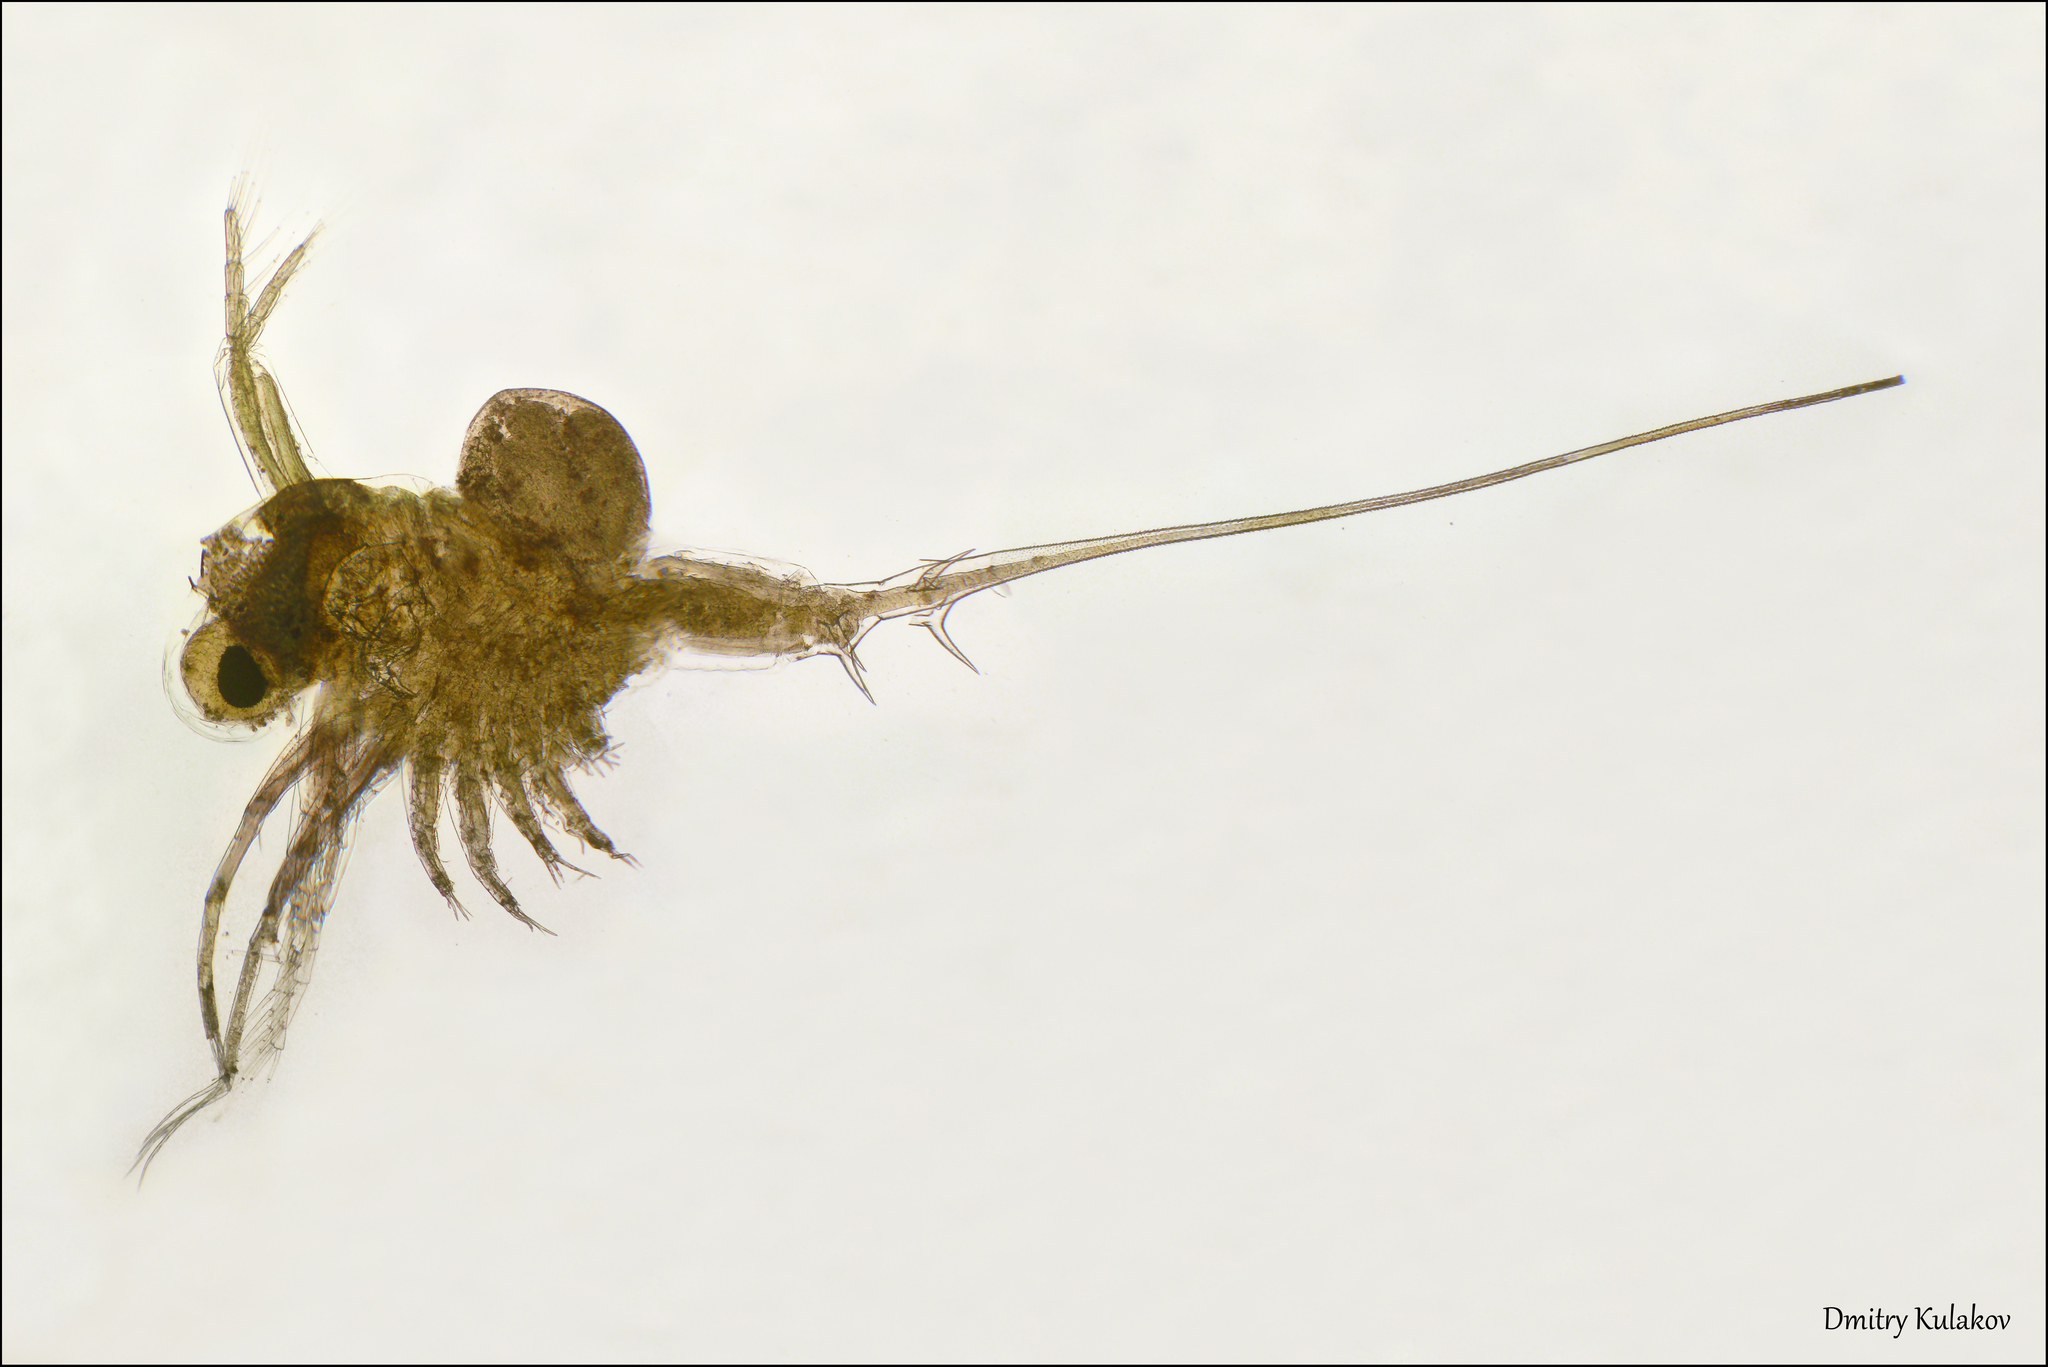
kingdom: Animalia
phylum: Arthropoda
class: Branchiopoda
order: Diplostraca
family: Cercopagidae
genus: Bythotrephes
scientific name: Bythotrephes longimanus
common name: Spiny waterflea
